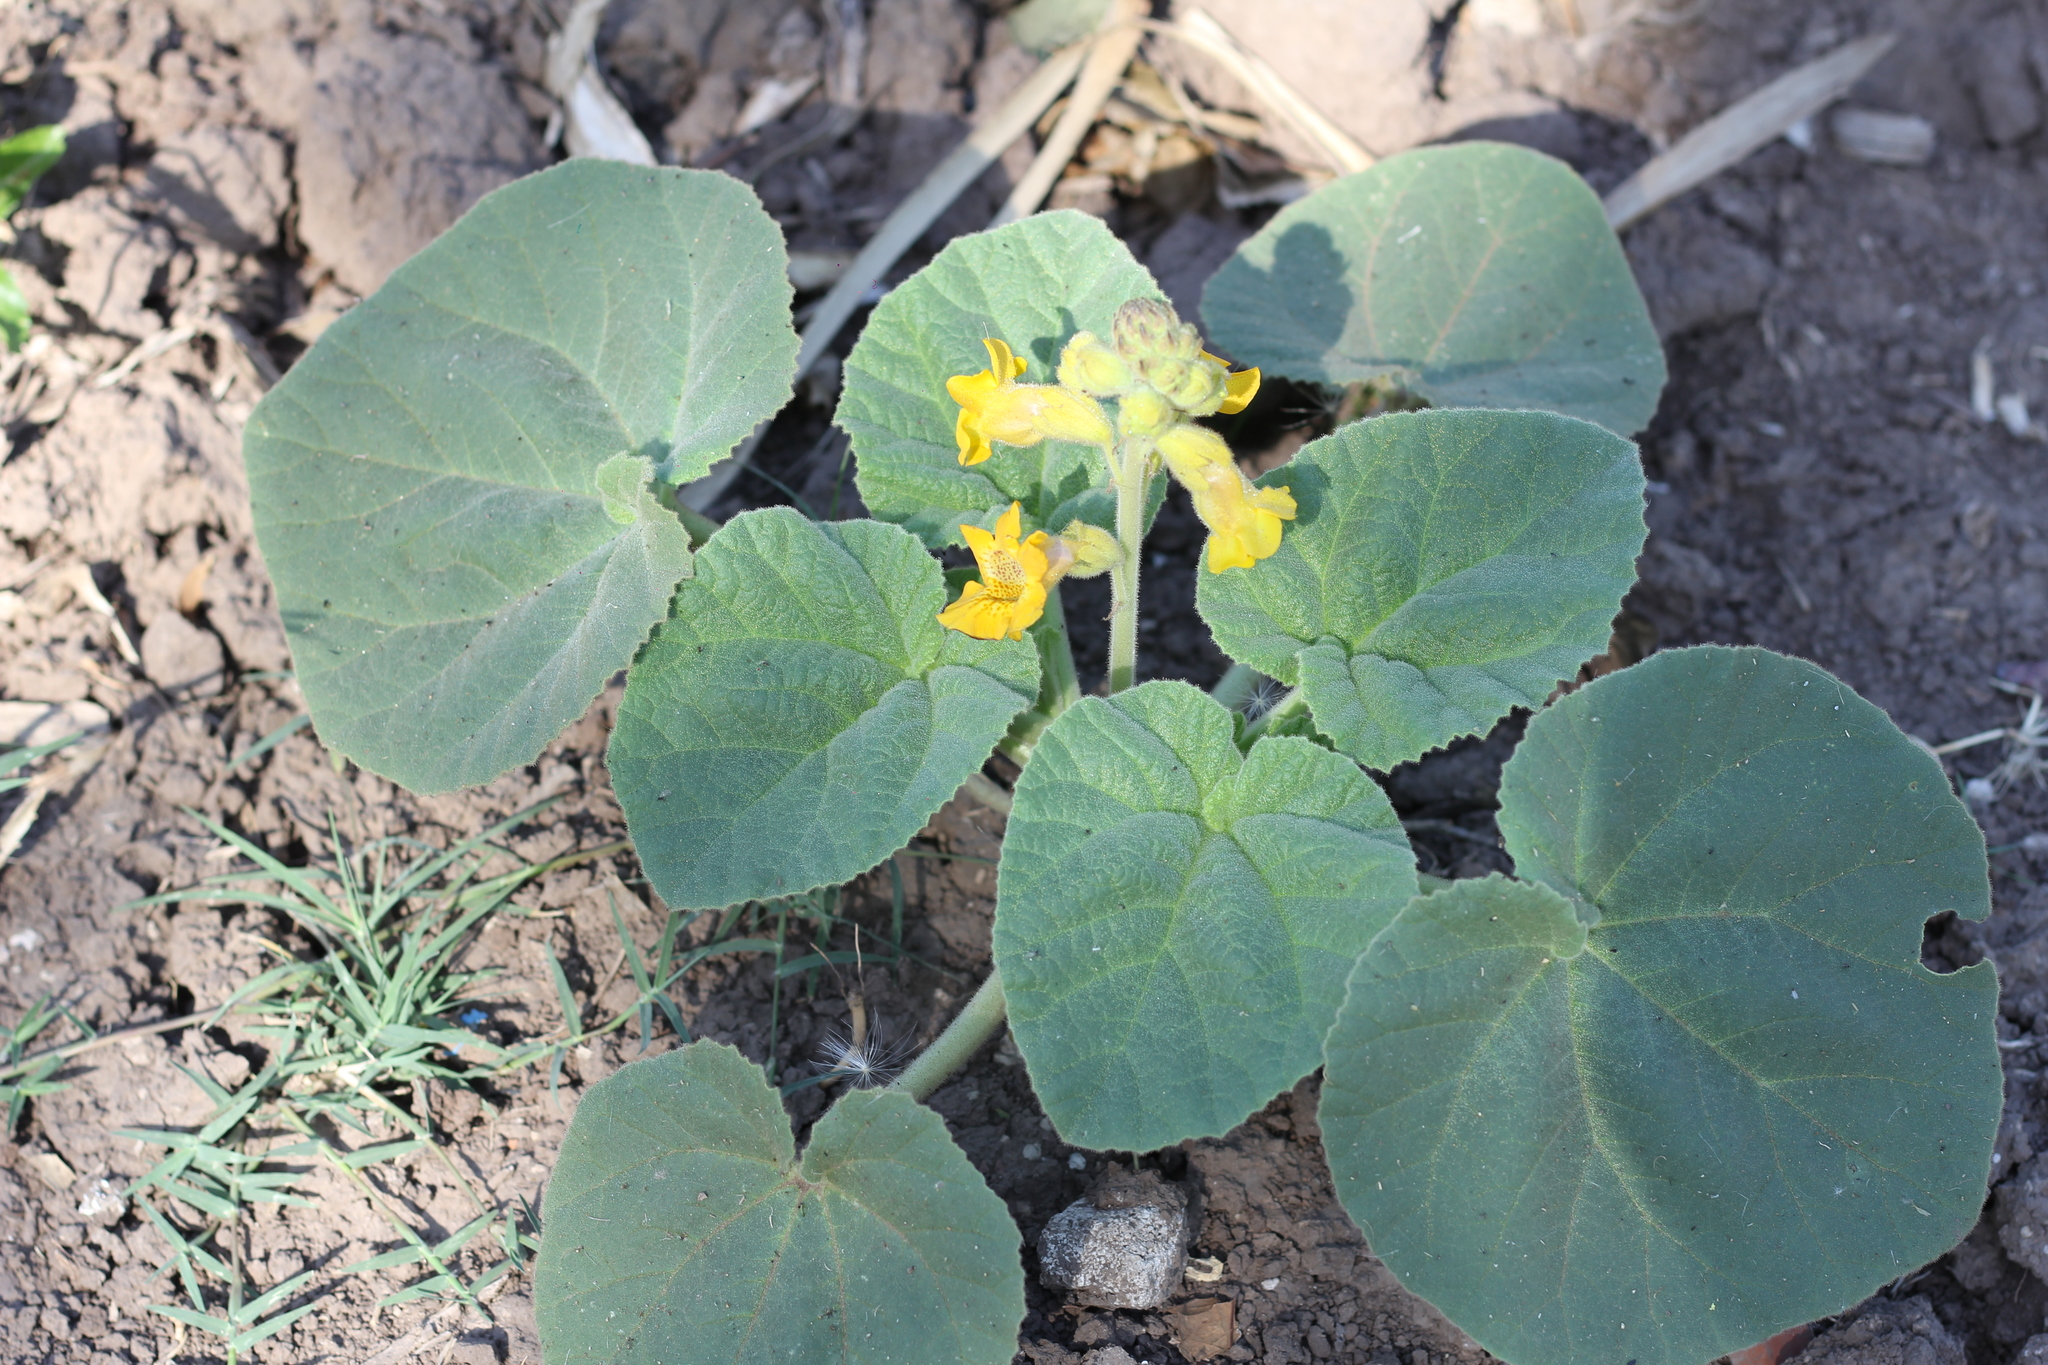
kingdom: Plantae
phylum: Tracheophyta
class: Magnoliopsida
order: Lamiales
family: Martyniaceae
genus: Ibicella
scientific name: Ibicella lutea
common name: Yellow unicorn-plant
